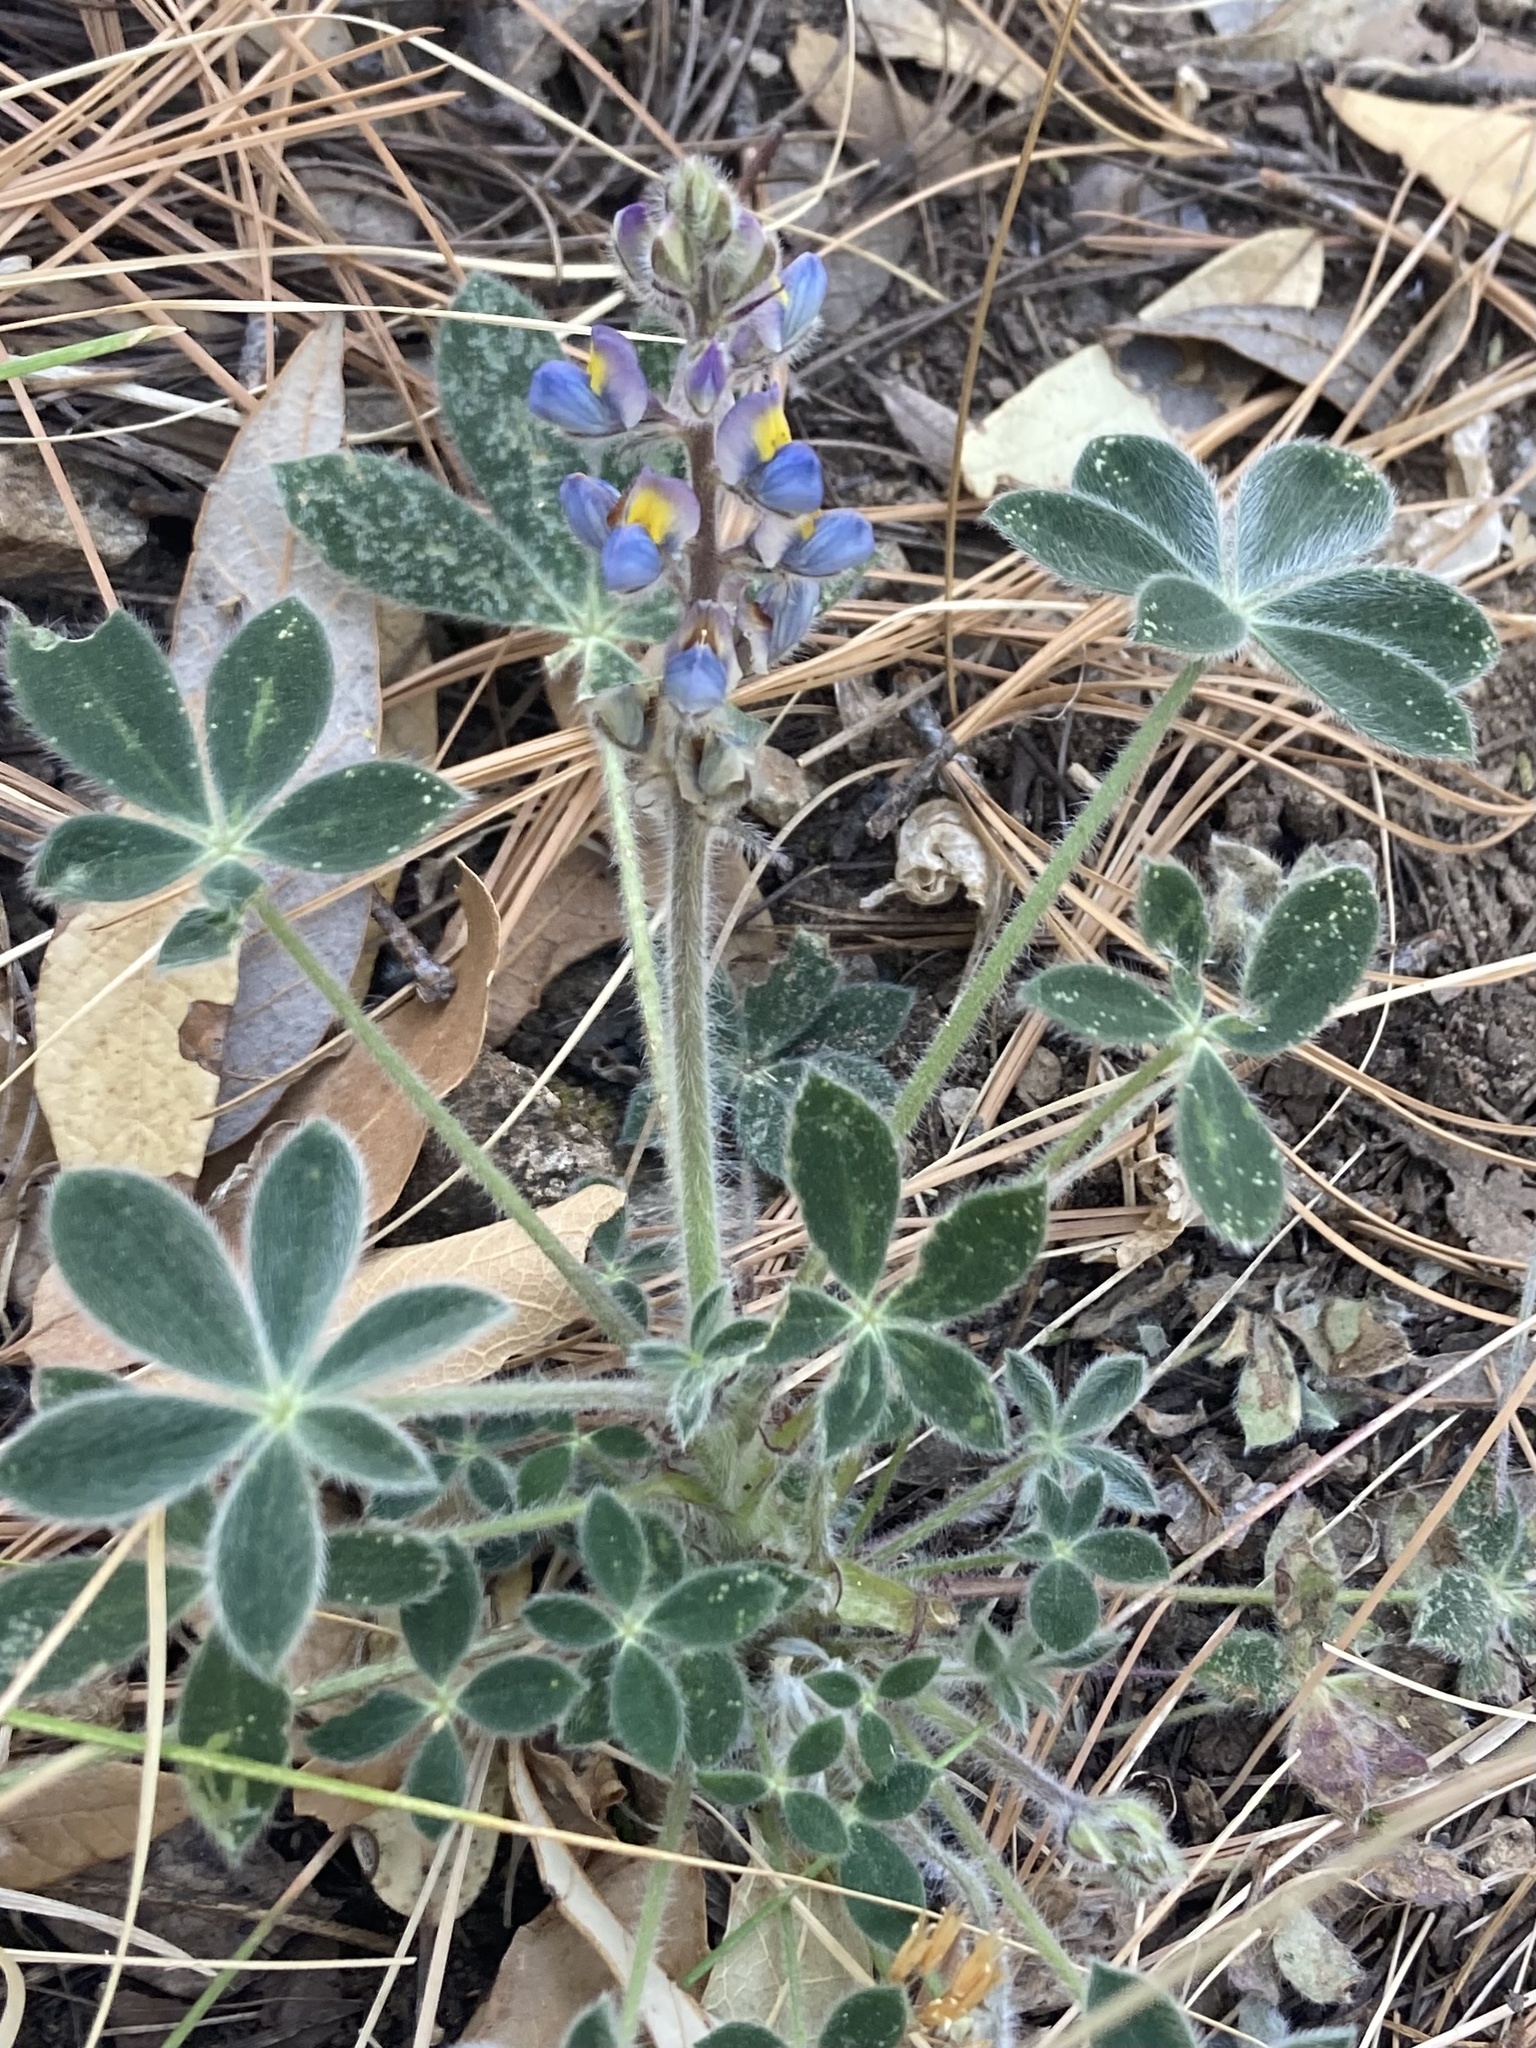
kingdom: Plantae
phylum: Tracheophyta
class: Magnoliopsida
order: Fabales
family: Fabaceae
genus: Lupinus
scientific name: Lupinus huachucanus
